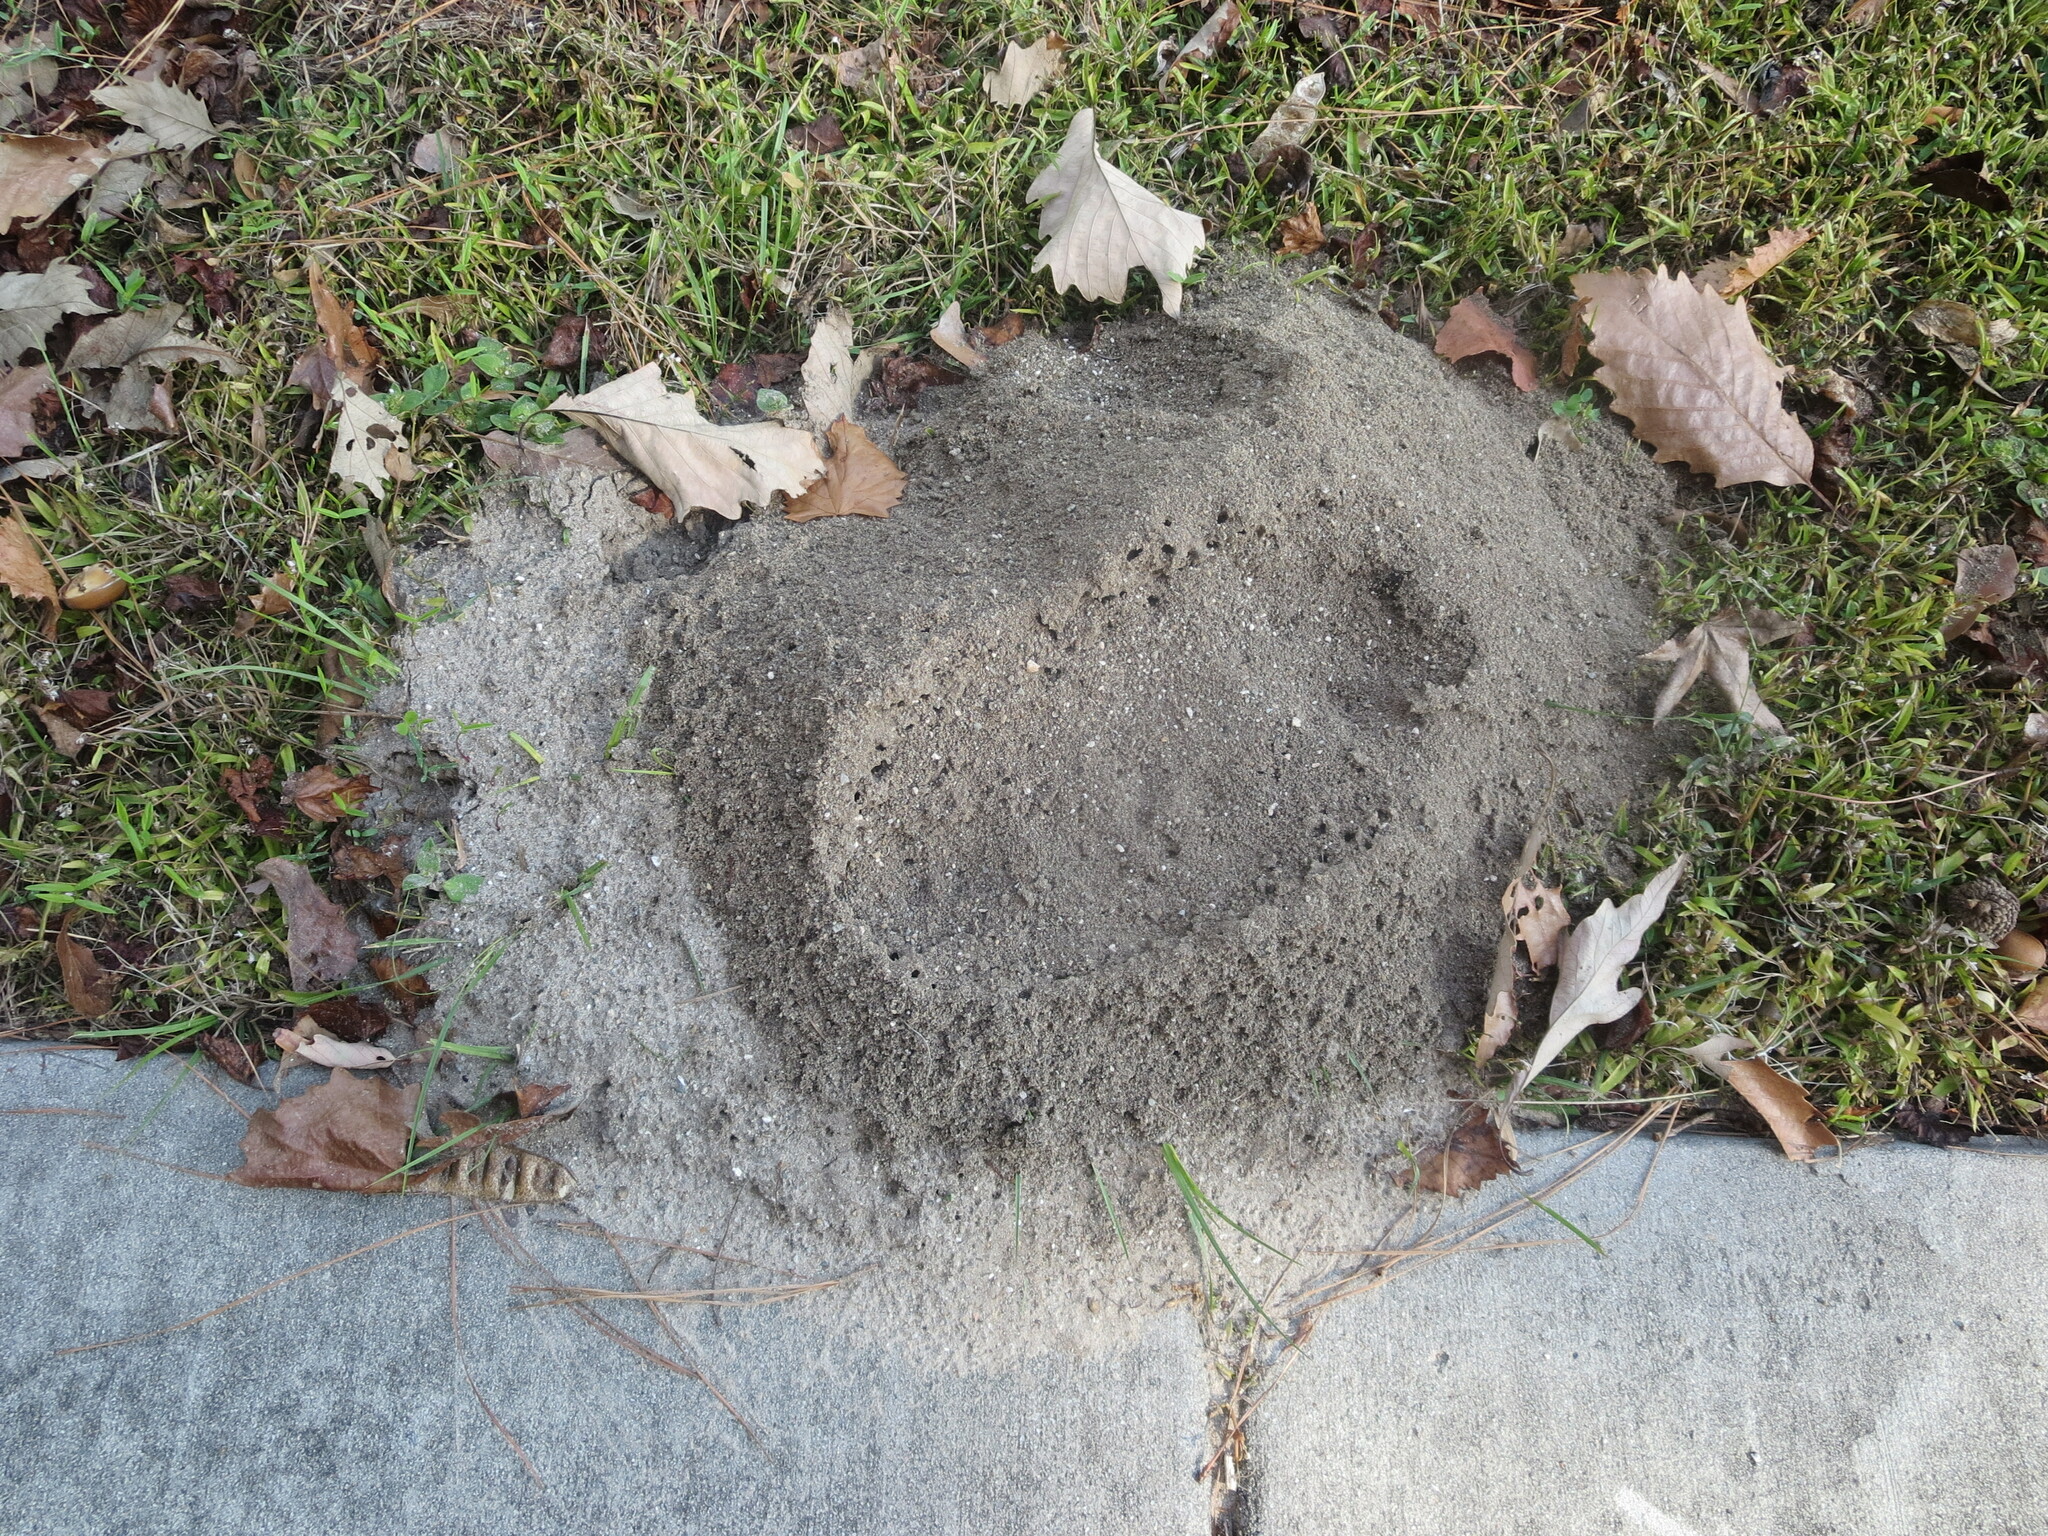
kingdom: Animalia
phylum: Arthropoda
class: Insecta
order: Hymenoptera
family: Formicidae
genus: Solenopsis
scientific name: Solenopsis invicta
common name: Red imported fire ant
